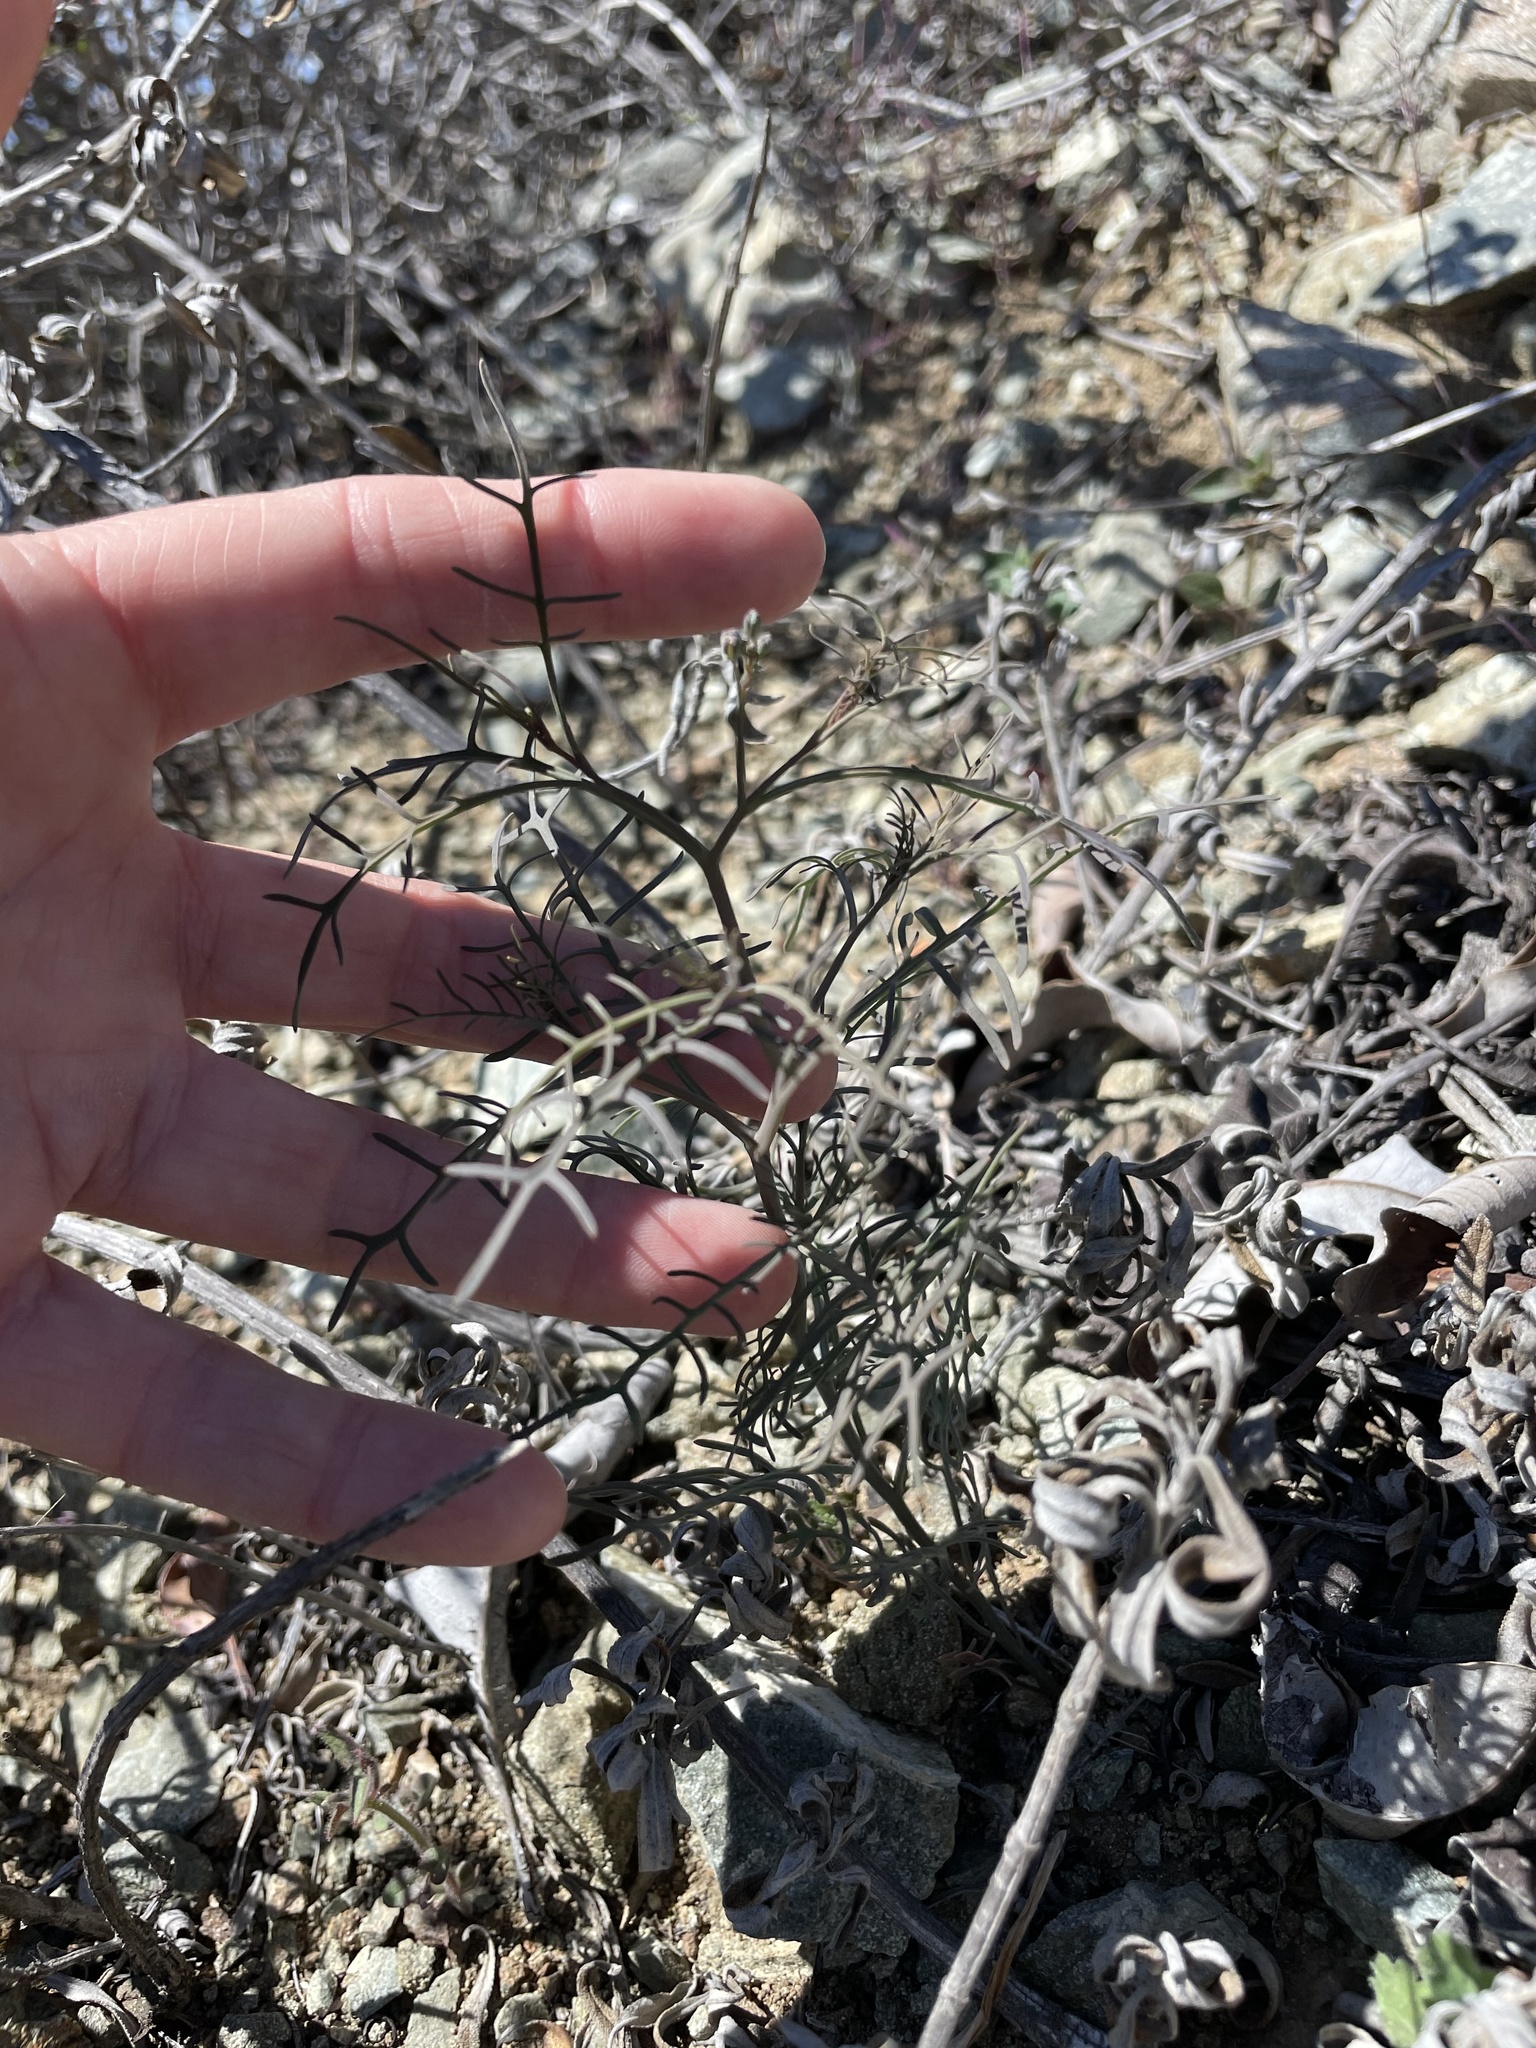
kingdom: Plantae
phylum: Tracheophyta
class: Magnoliopsida
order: Brassicales
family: Brassicaceae
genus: Sibara
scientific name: Sibara filifolia
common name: Santa cruz island-rockcress
